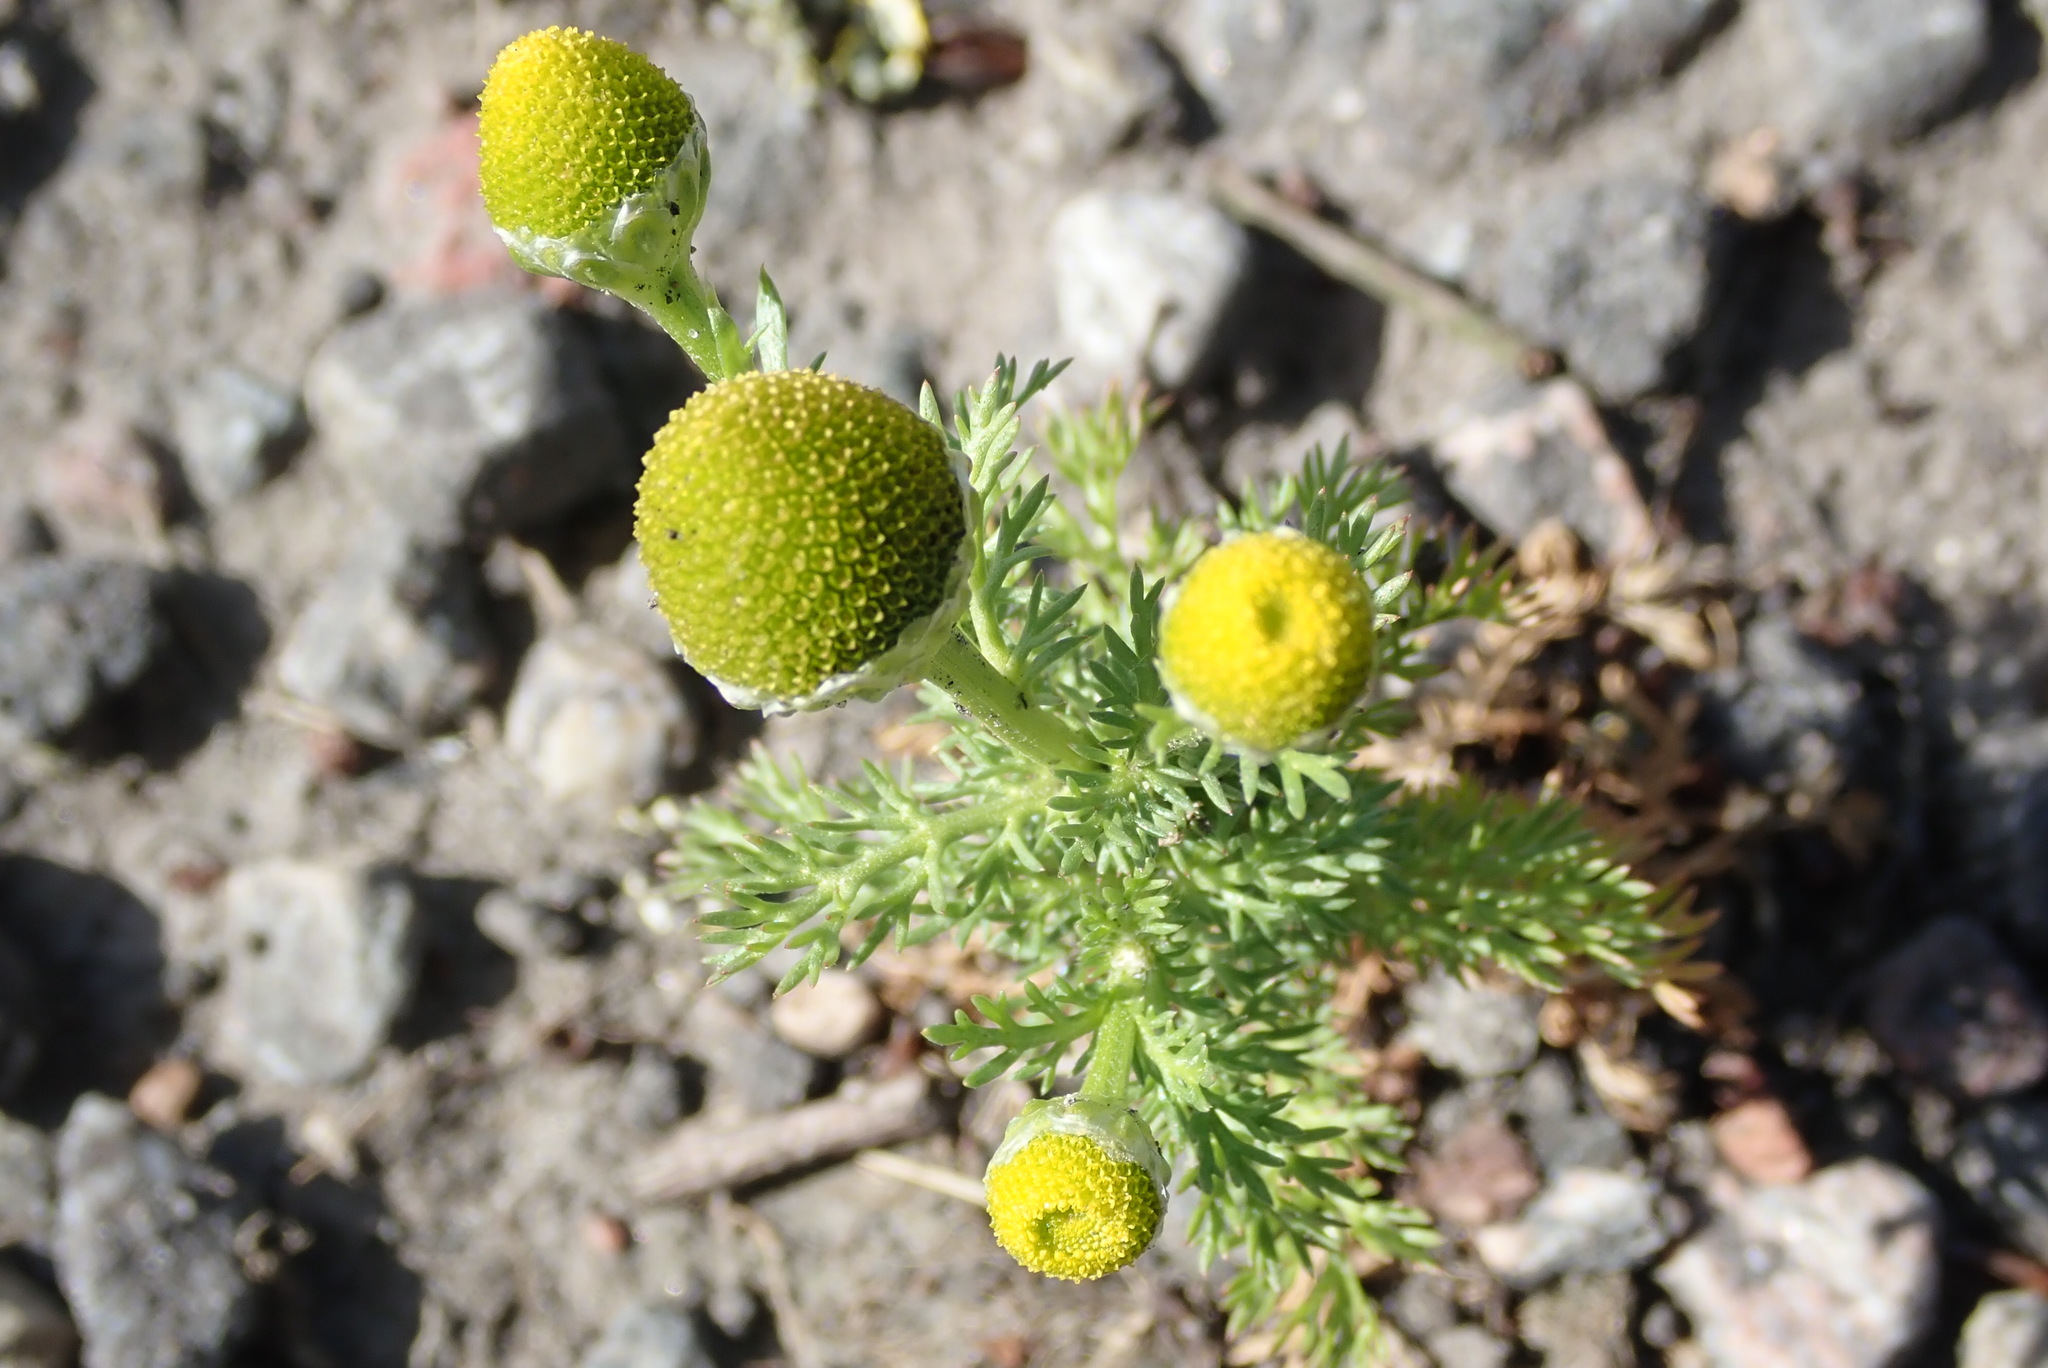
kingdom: Plantae
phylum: Tracheophyta
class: Magnoliopsida
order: Asterales
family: Asteraceae
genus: Matricaria
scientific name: Matricaria discoidea
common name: Disc mayweed
